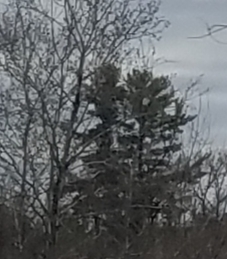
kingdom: Plantae
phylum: Tracheophyta
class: Pinopsida
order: Pinales
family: Pinaceae
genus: Pinus
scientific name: Pinus strobus
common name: Weymouth pine
